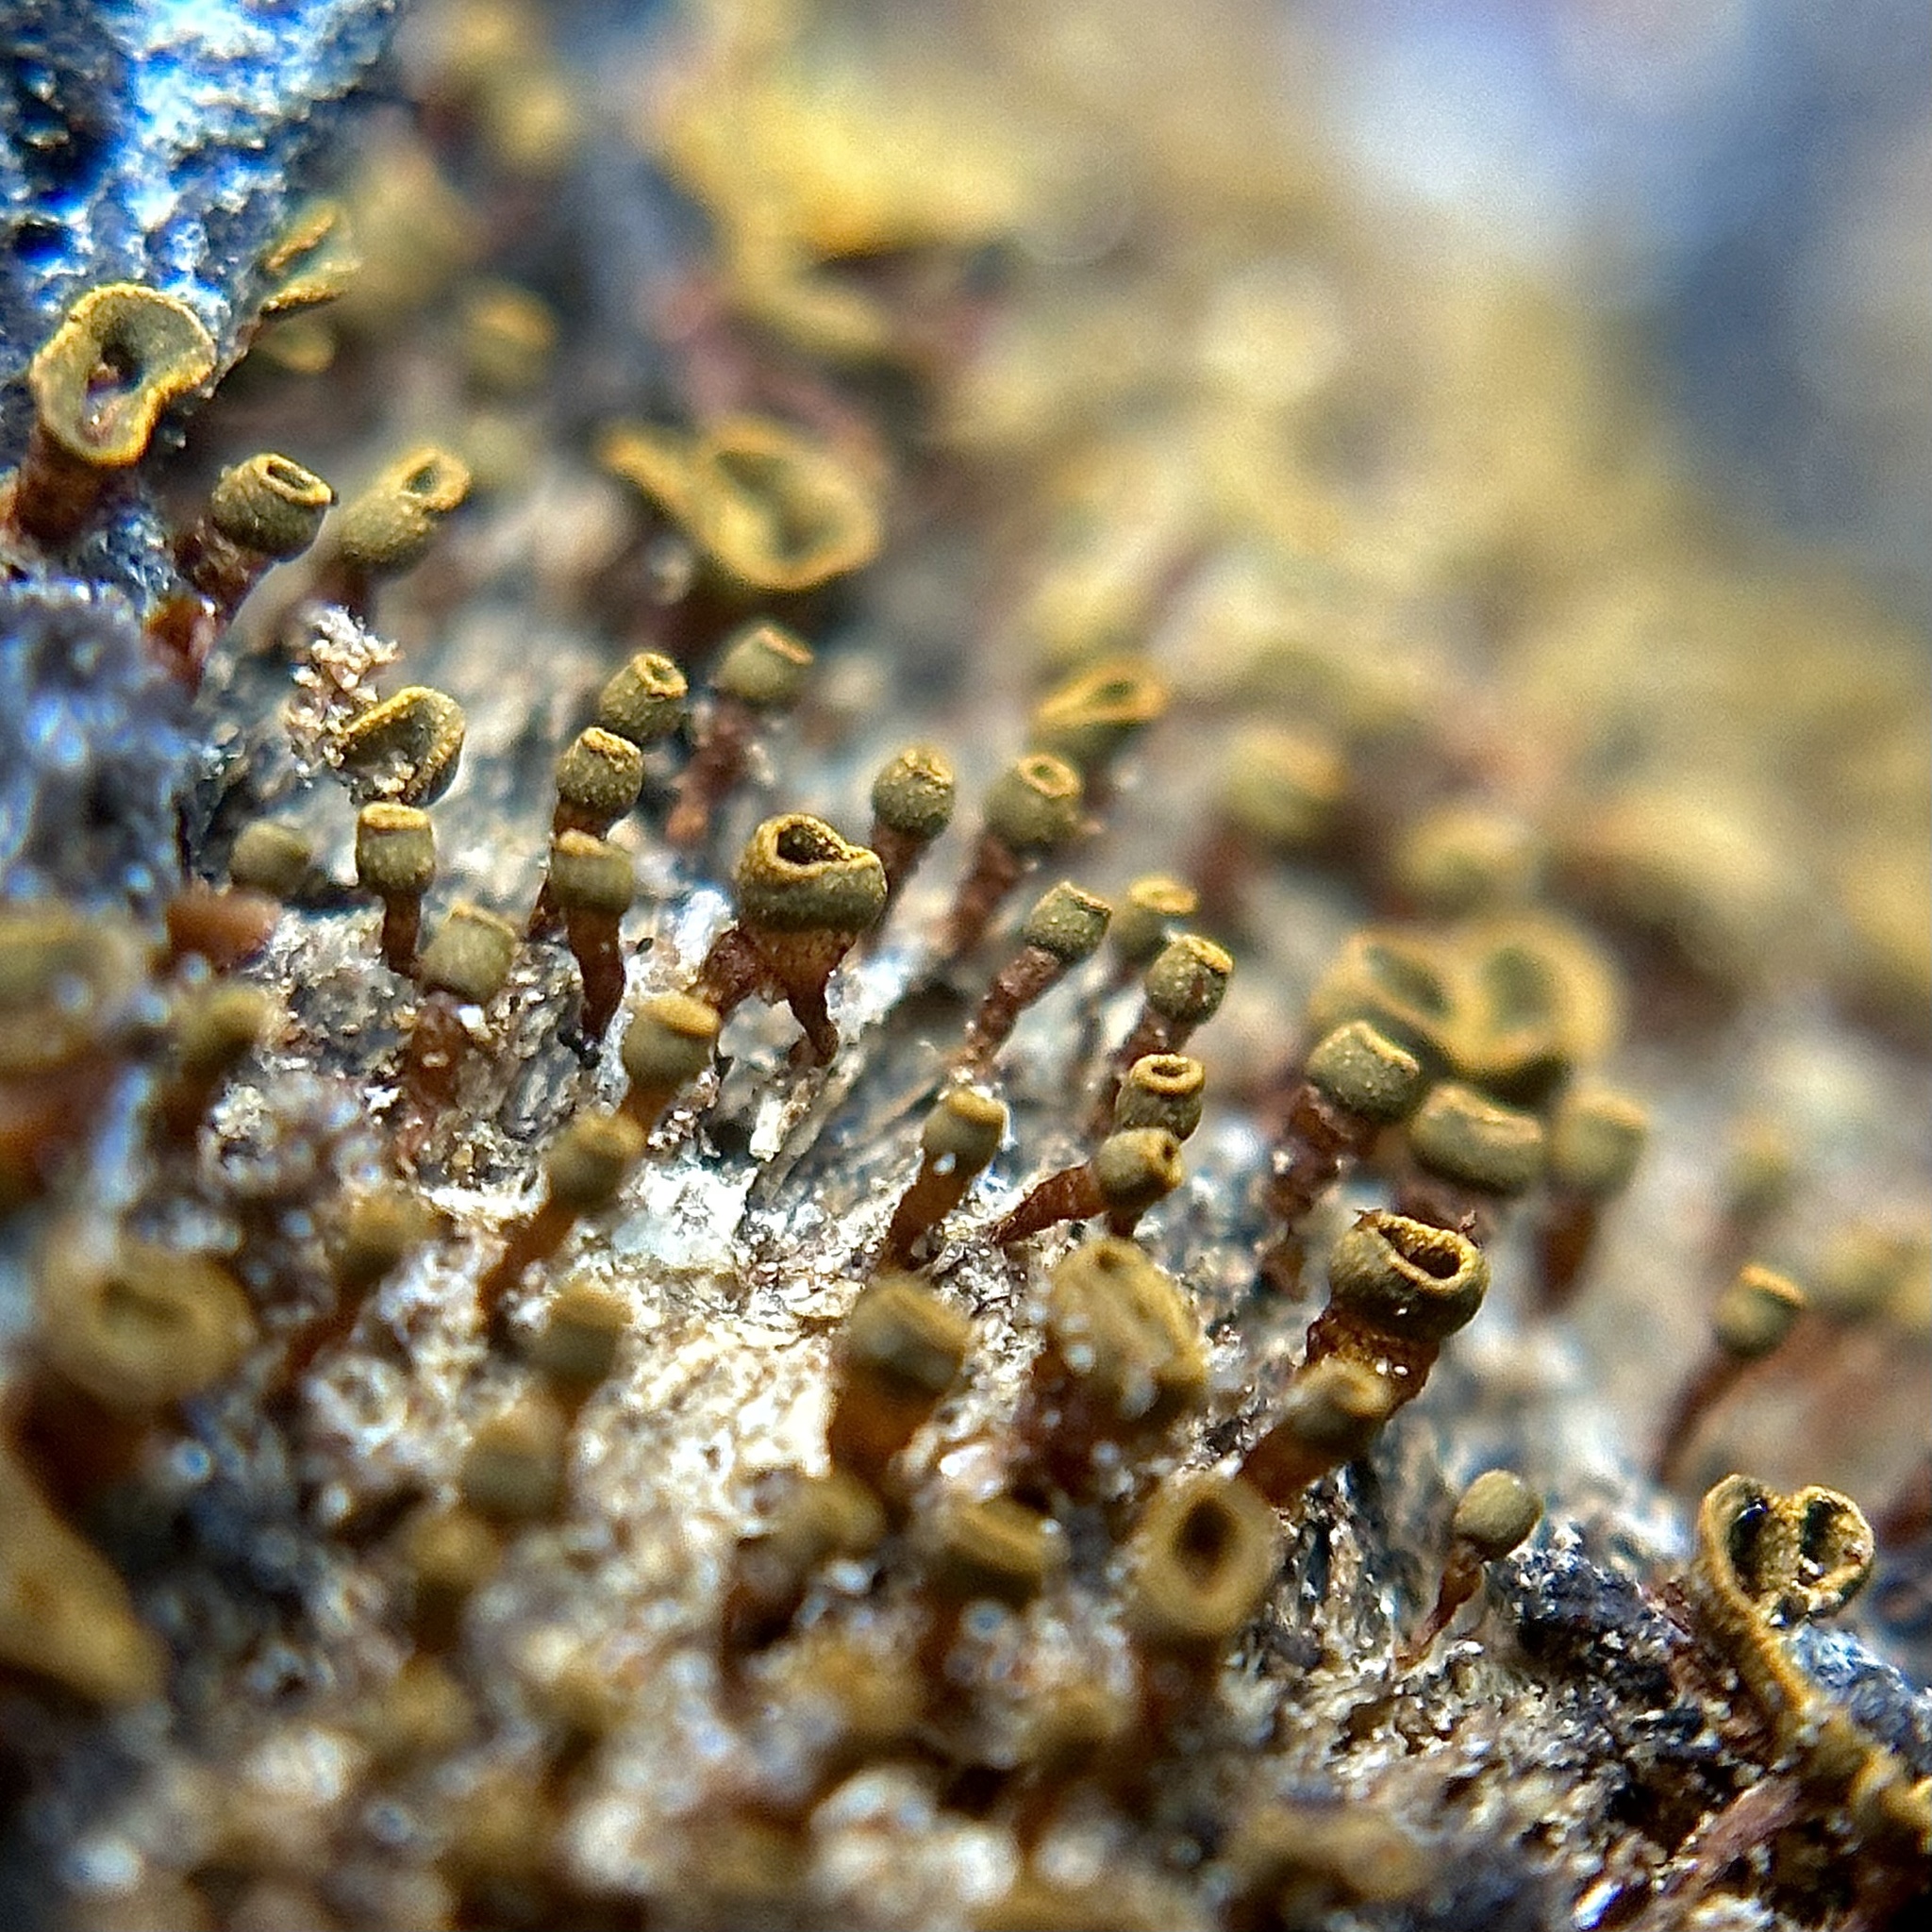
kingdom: Protozoa
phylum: Mycetozoa
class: Myxomycetes
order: Physarales
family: Physaraceae
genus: Physarella
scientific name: Physarella oblonga
